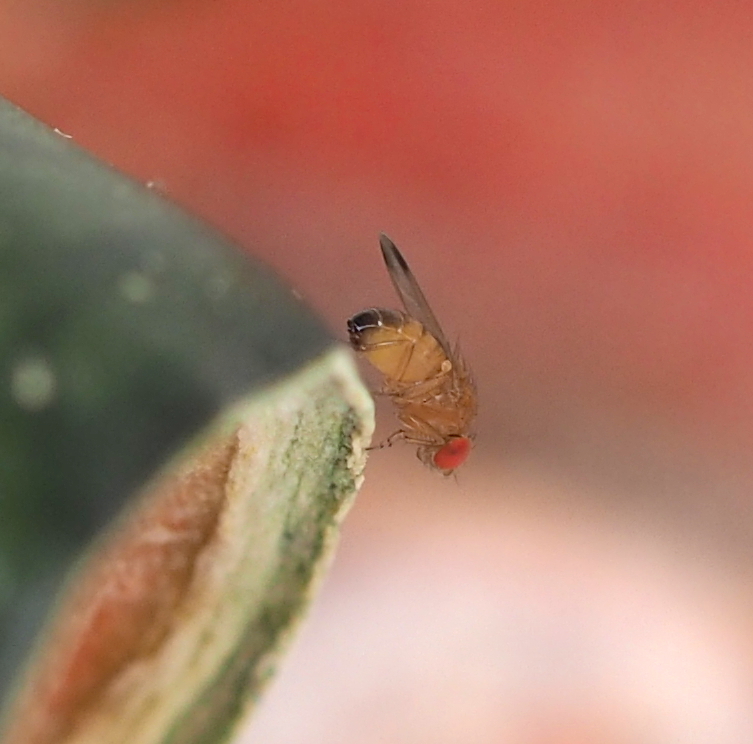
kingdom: Animalia
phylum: Arthropoda
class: Insecta
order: Diptera
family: Drosophilidae
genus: Drosophila
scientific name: Drosophila suzukii
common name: Spotted-wing drosophila
